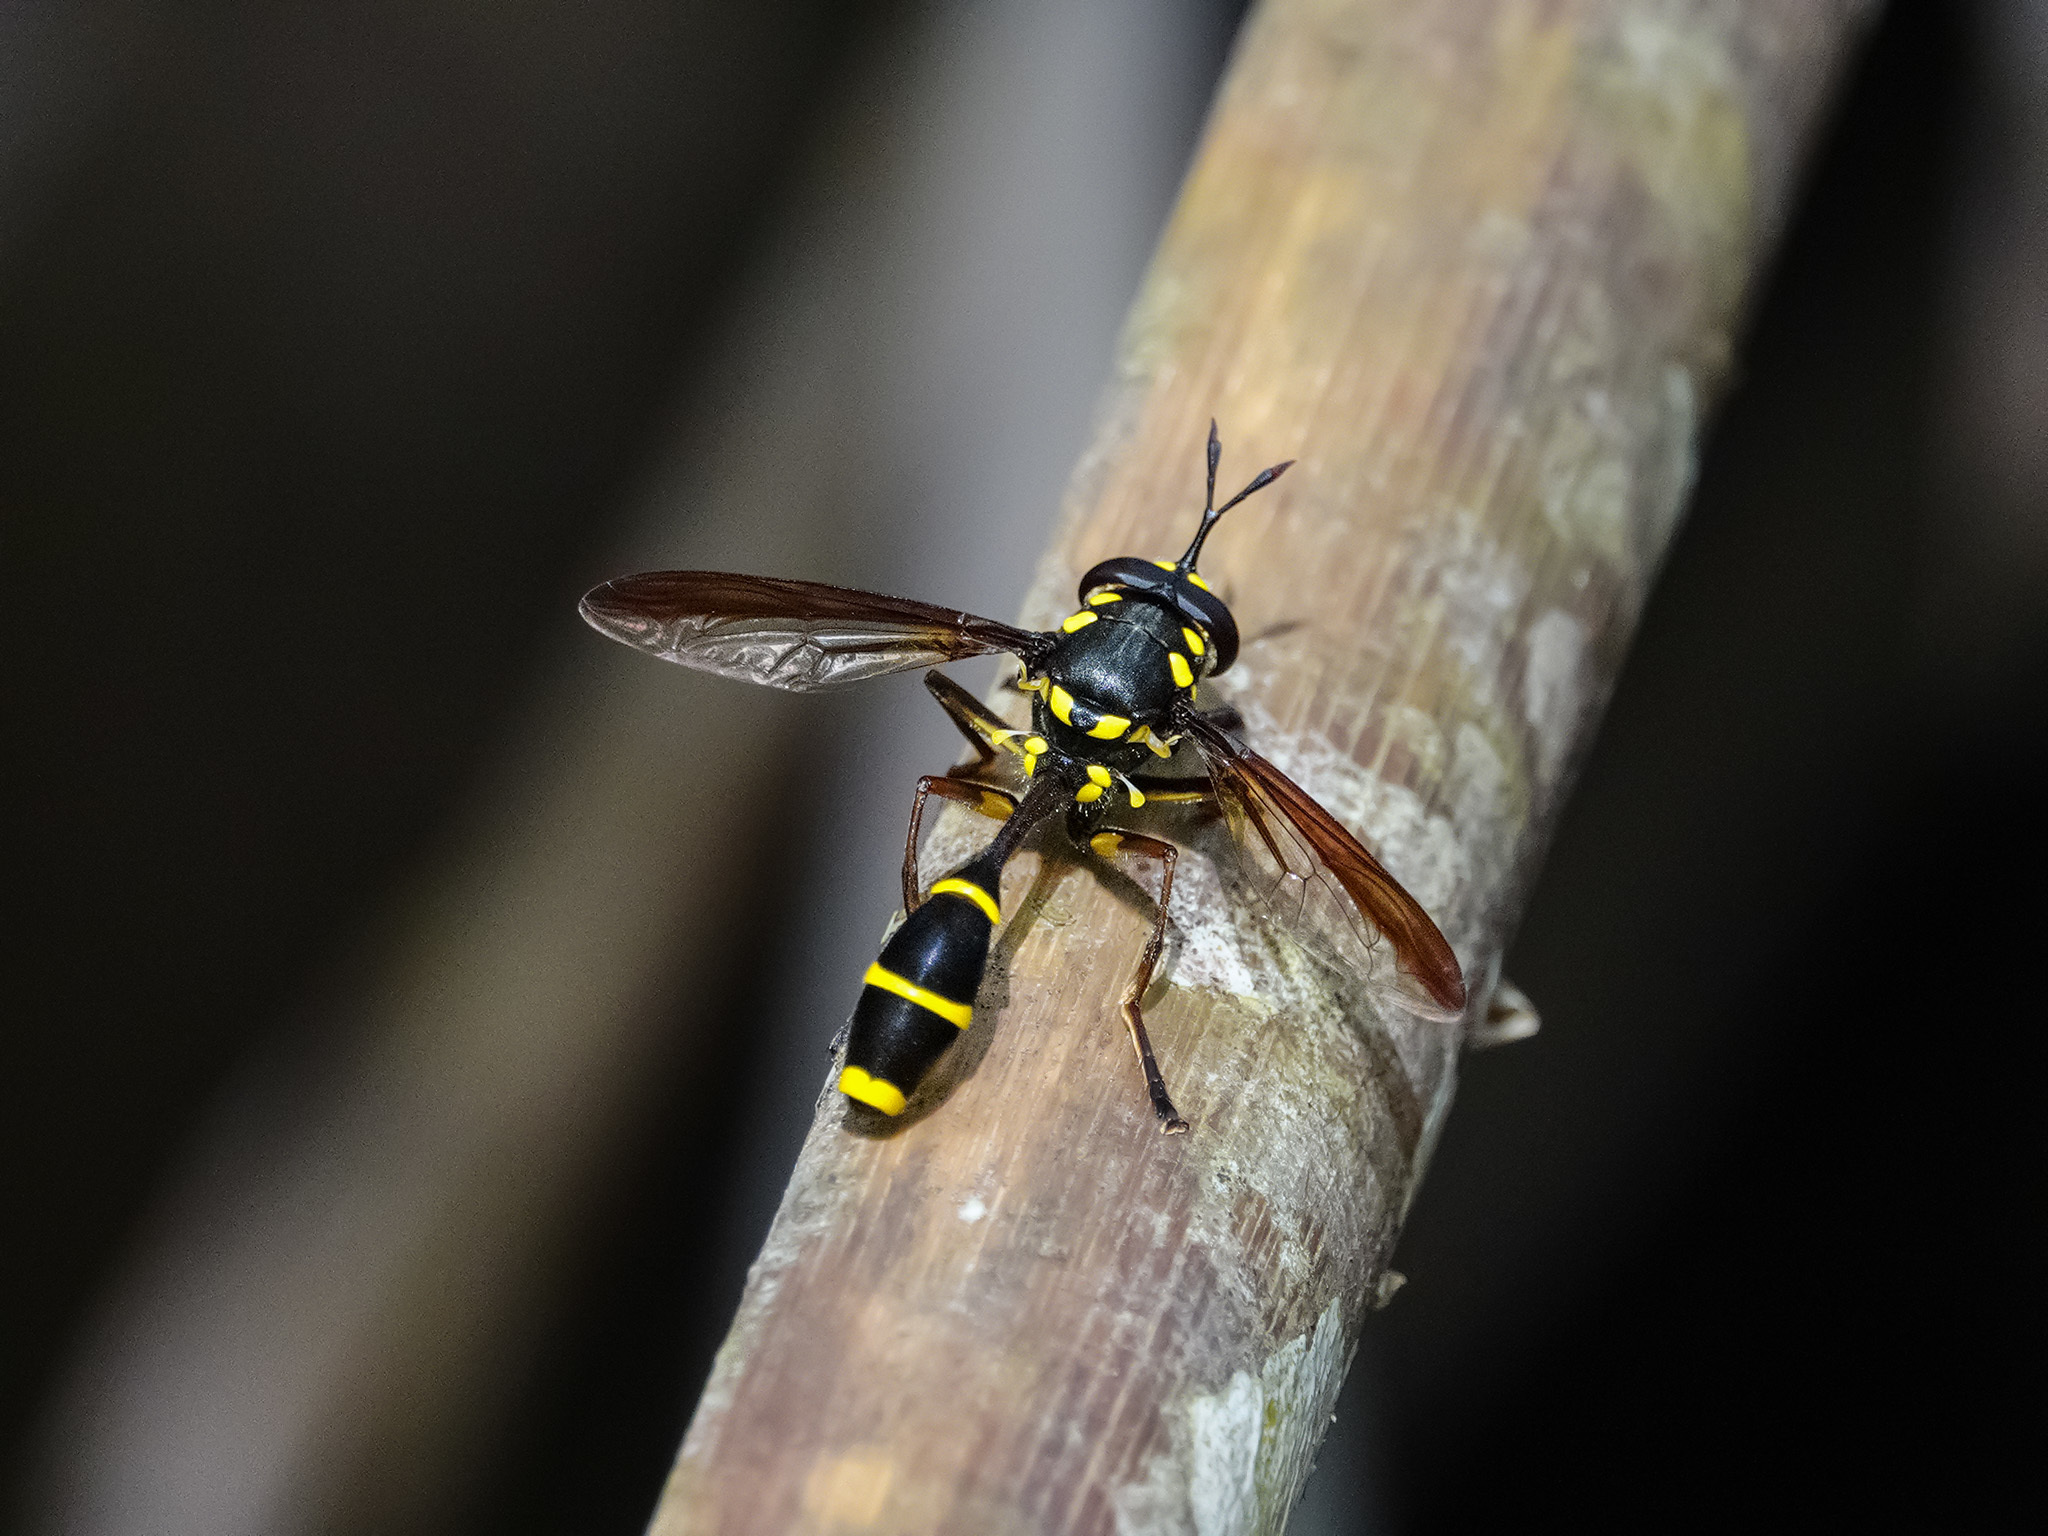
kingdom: Animalia
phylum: Arthropoda
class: Insecta
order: Diptera
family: Syrphidae
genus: Monoceromyia
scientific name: Monoceromyia
